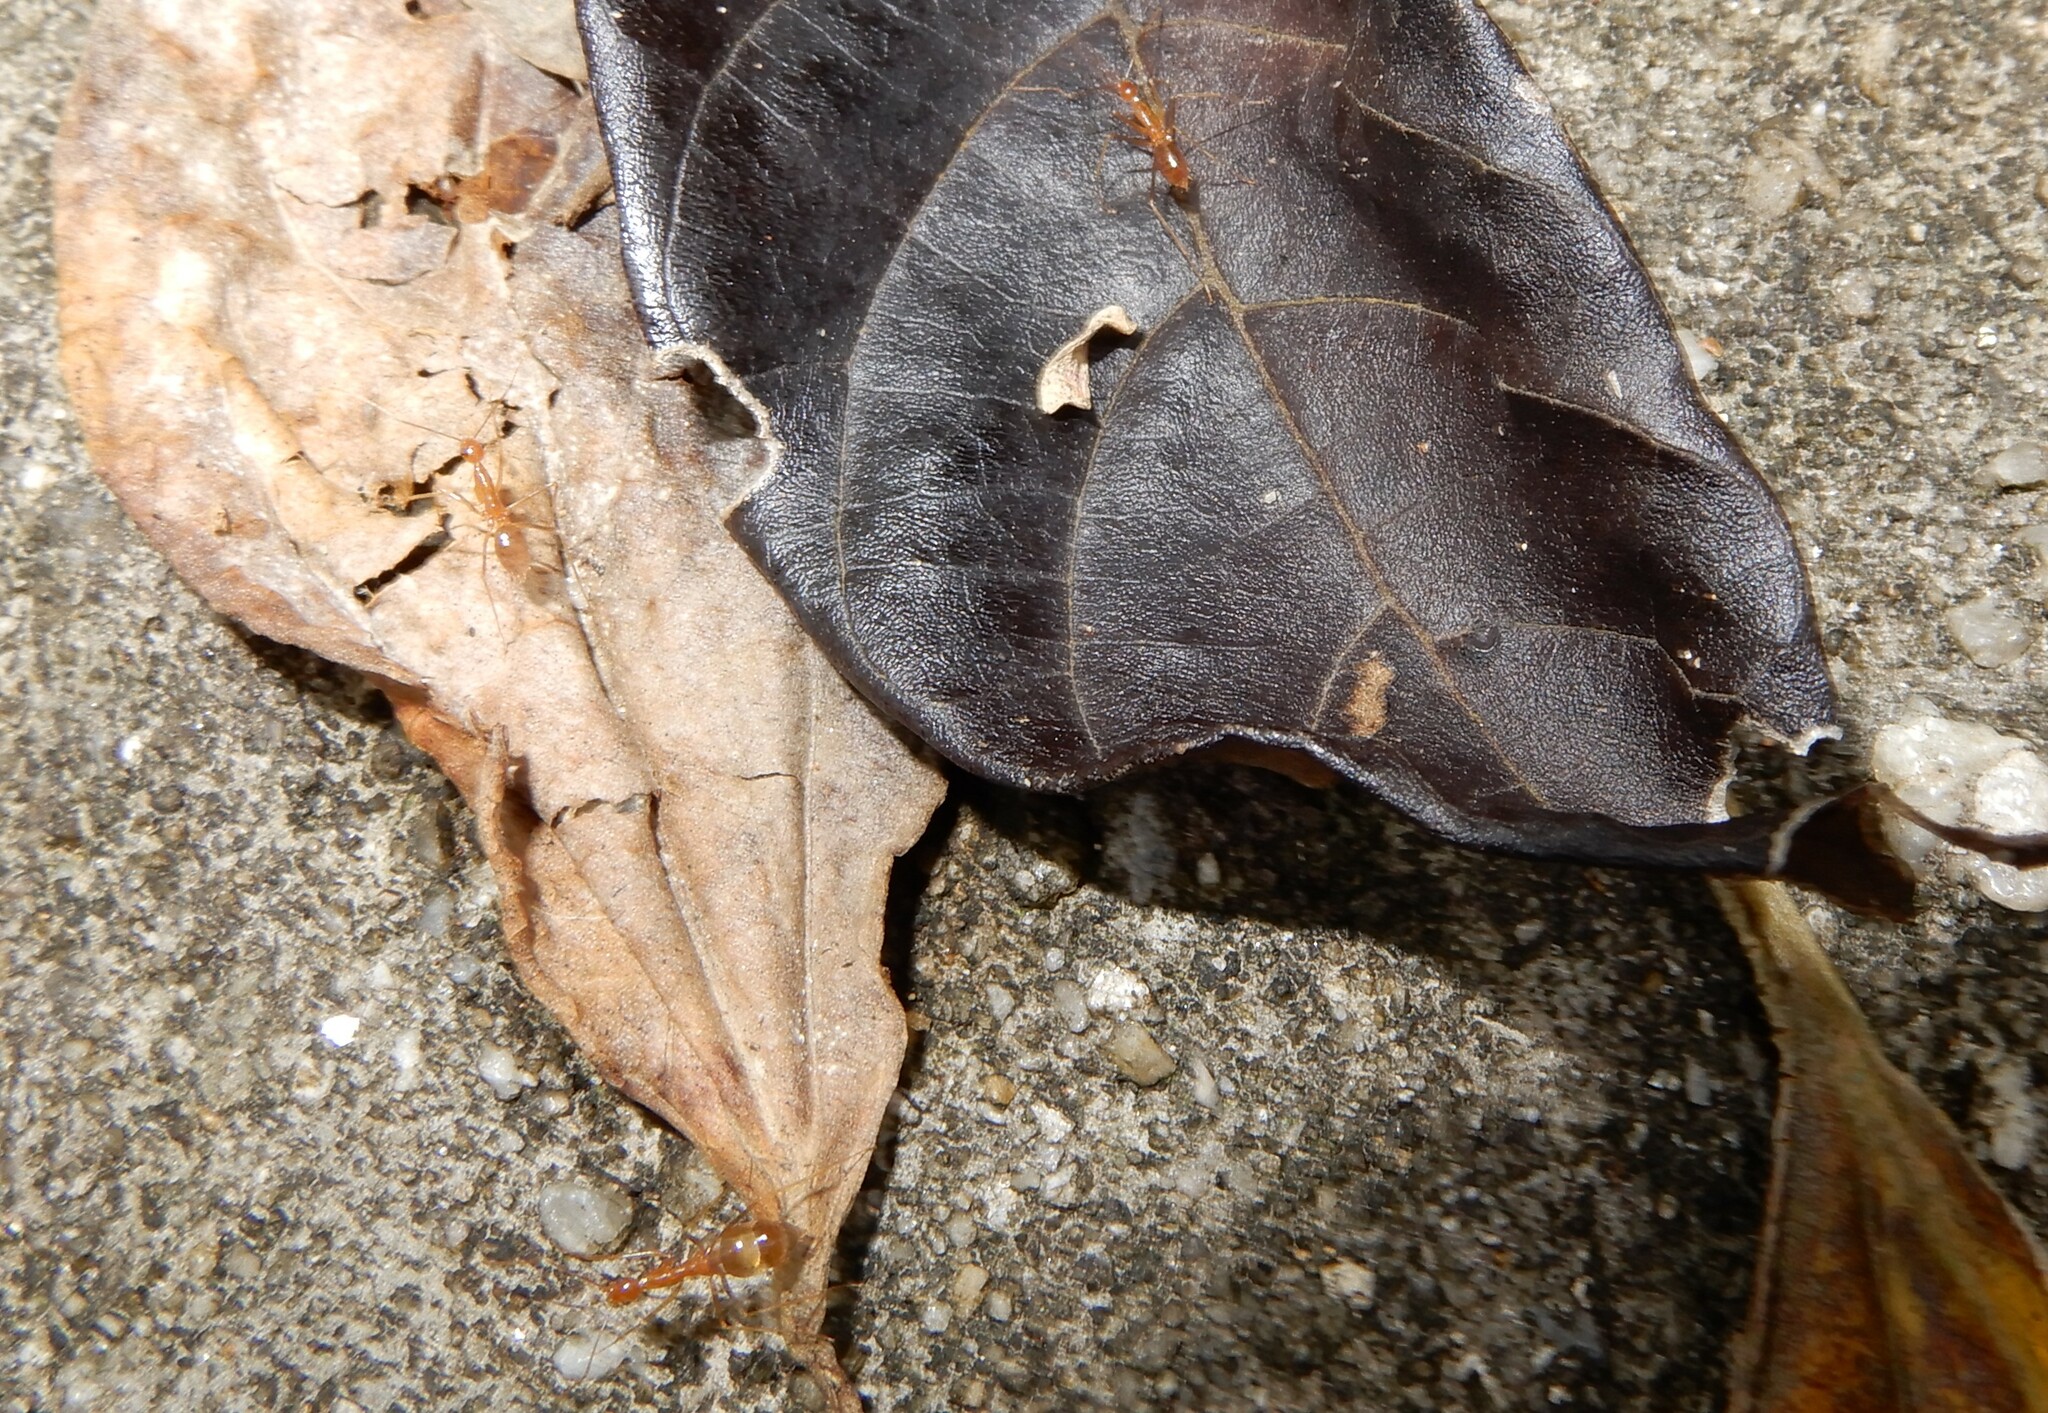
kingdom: Animalia
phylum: Arthropoda
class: Insecta
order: Hymenoptera
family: Formicidae
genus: Anoplolepis
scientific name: Anoplolepis gracilipes
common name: Ant
